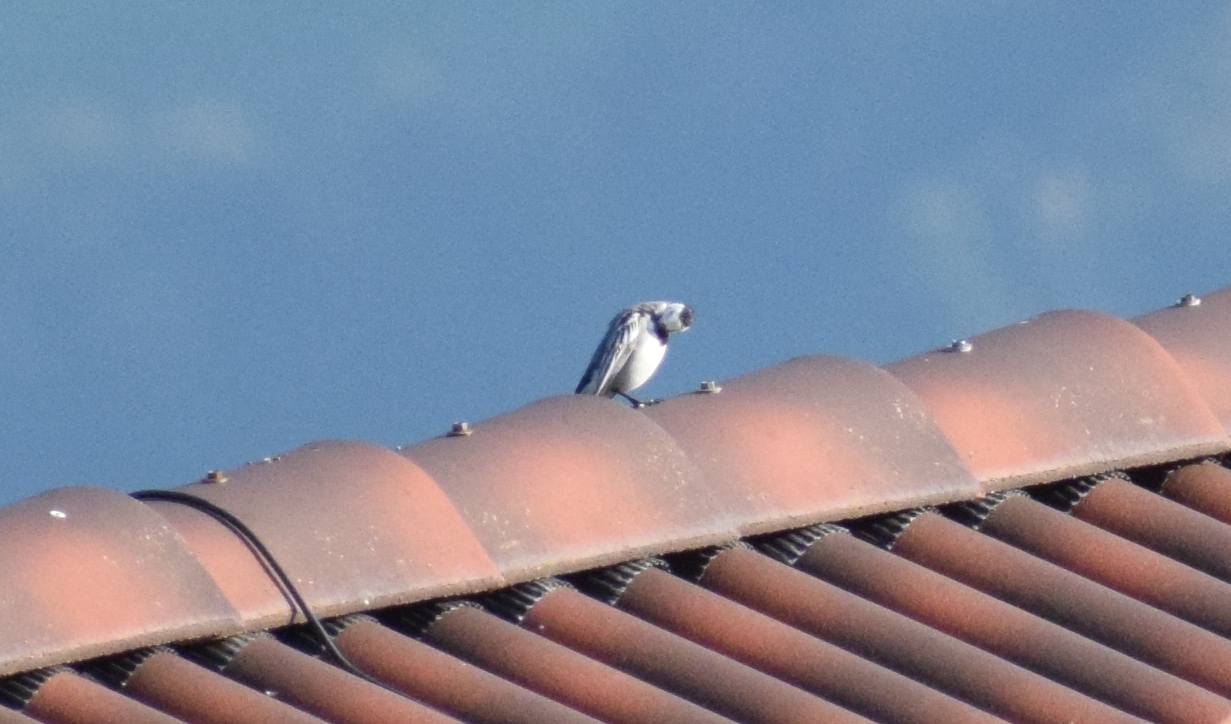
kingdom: Animalia
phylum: Chordata
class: Aves
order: Passeriformes
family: Motacillidae
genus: Motacilla
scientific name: Motacilla alba
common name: White wagtail
